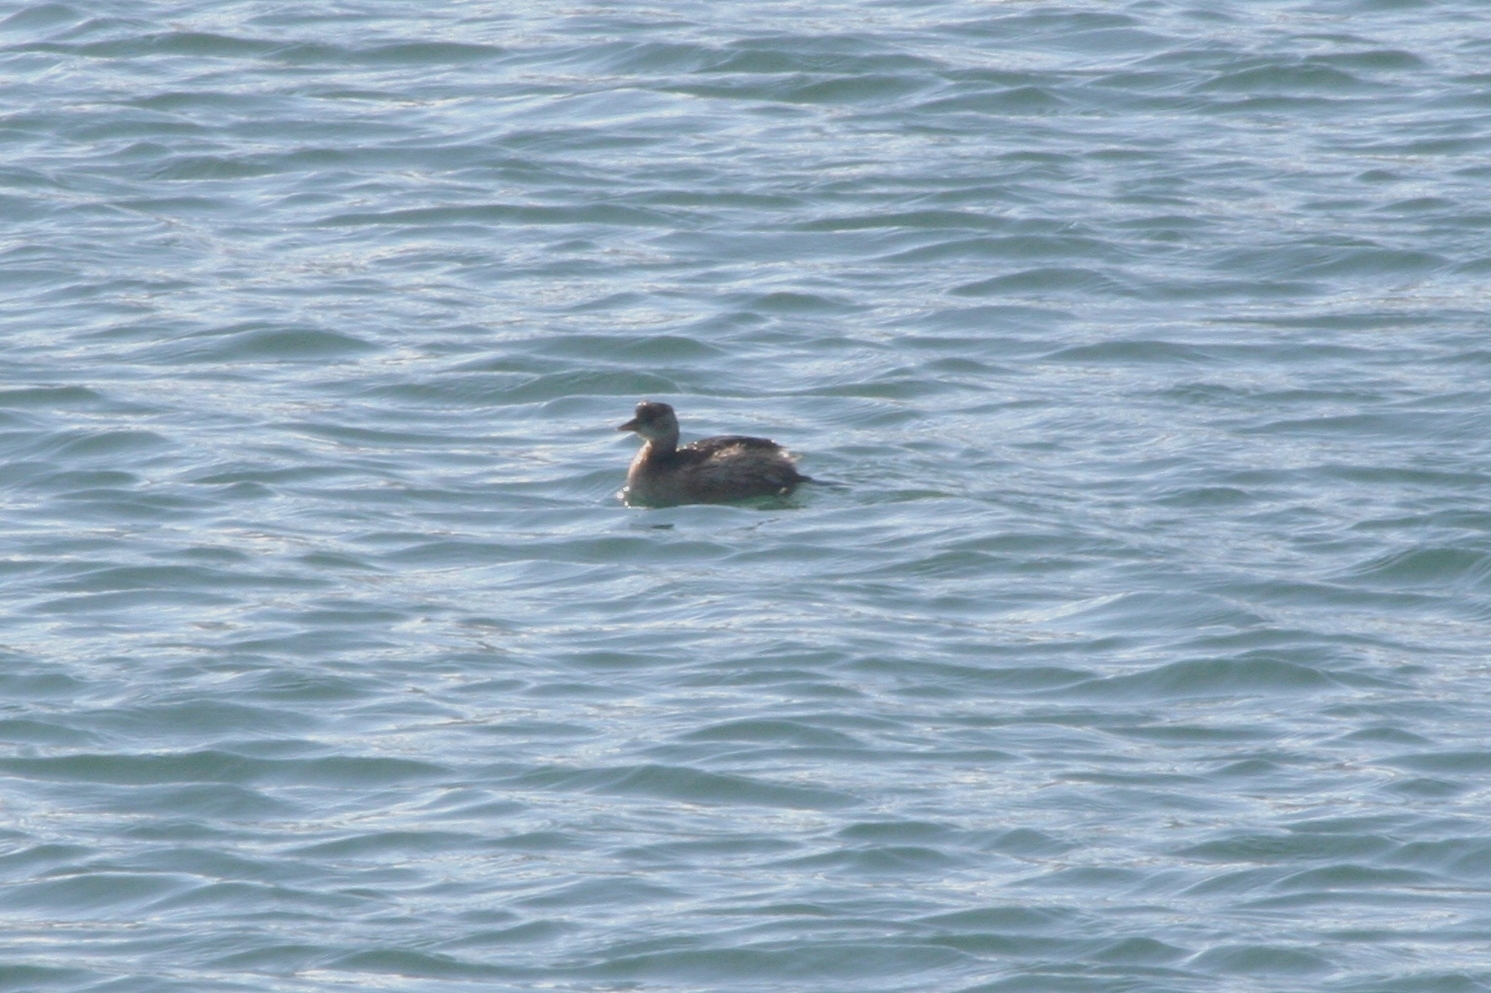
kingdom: Animalia
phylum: Chordata
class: Aves
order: Podicipediformes
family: Podicipedidae
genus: Tachybaptus
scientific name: Tachybaptus ruficollis
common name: Little grebe
